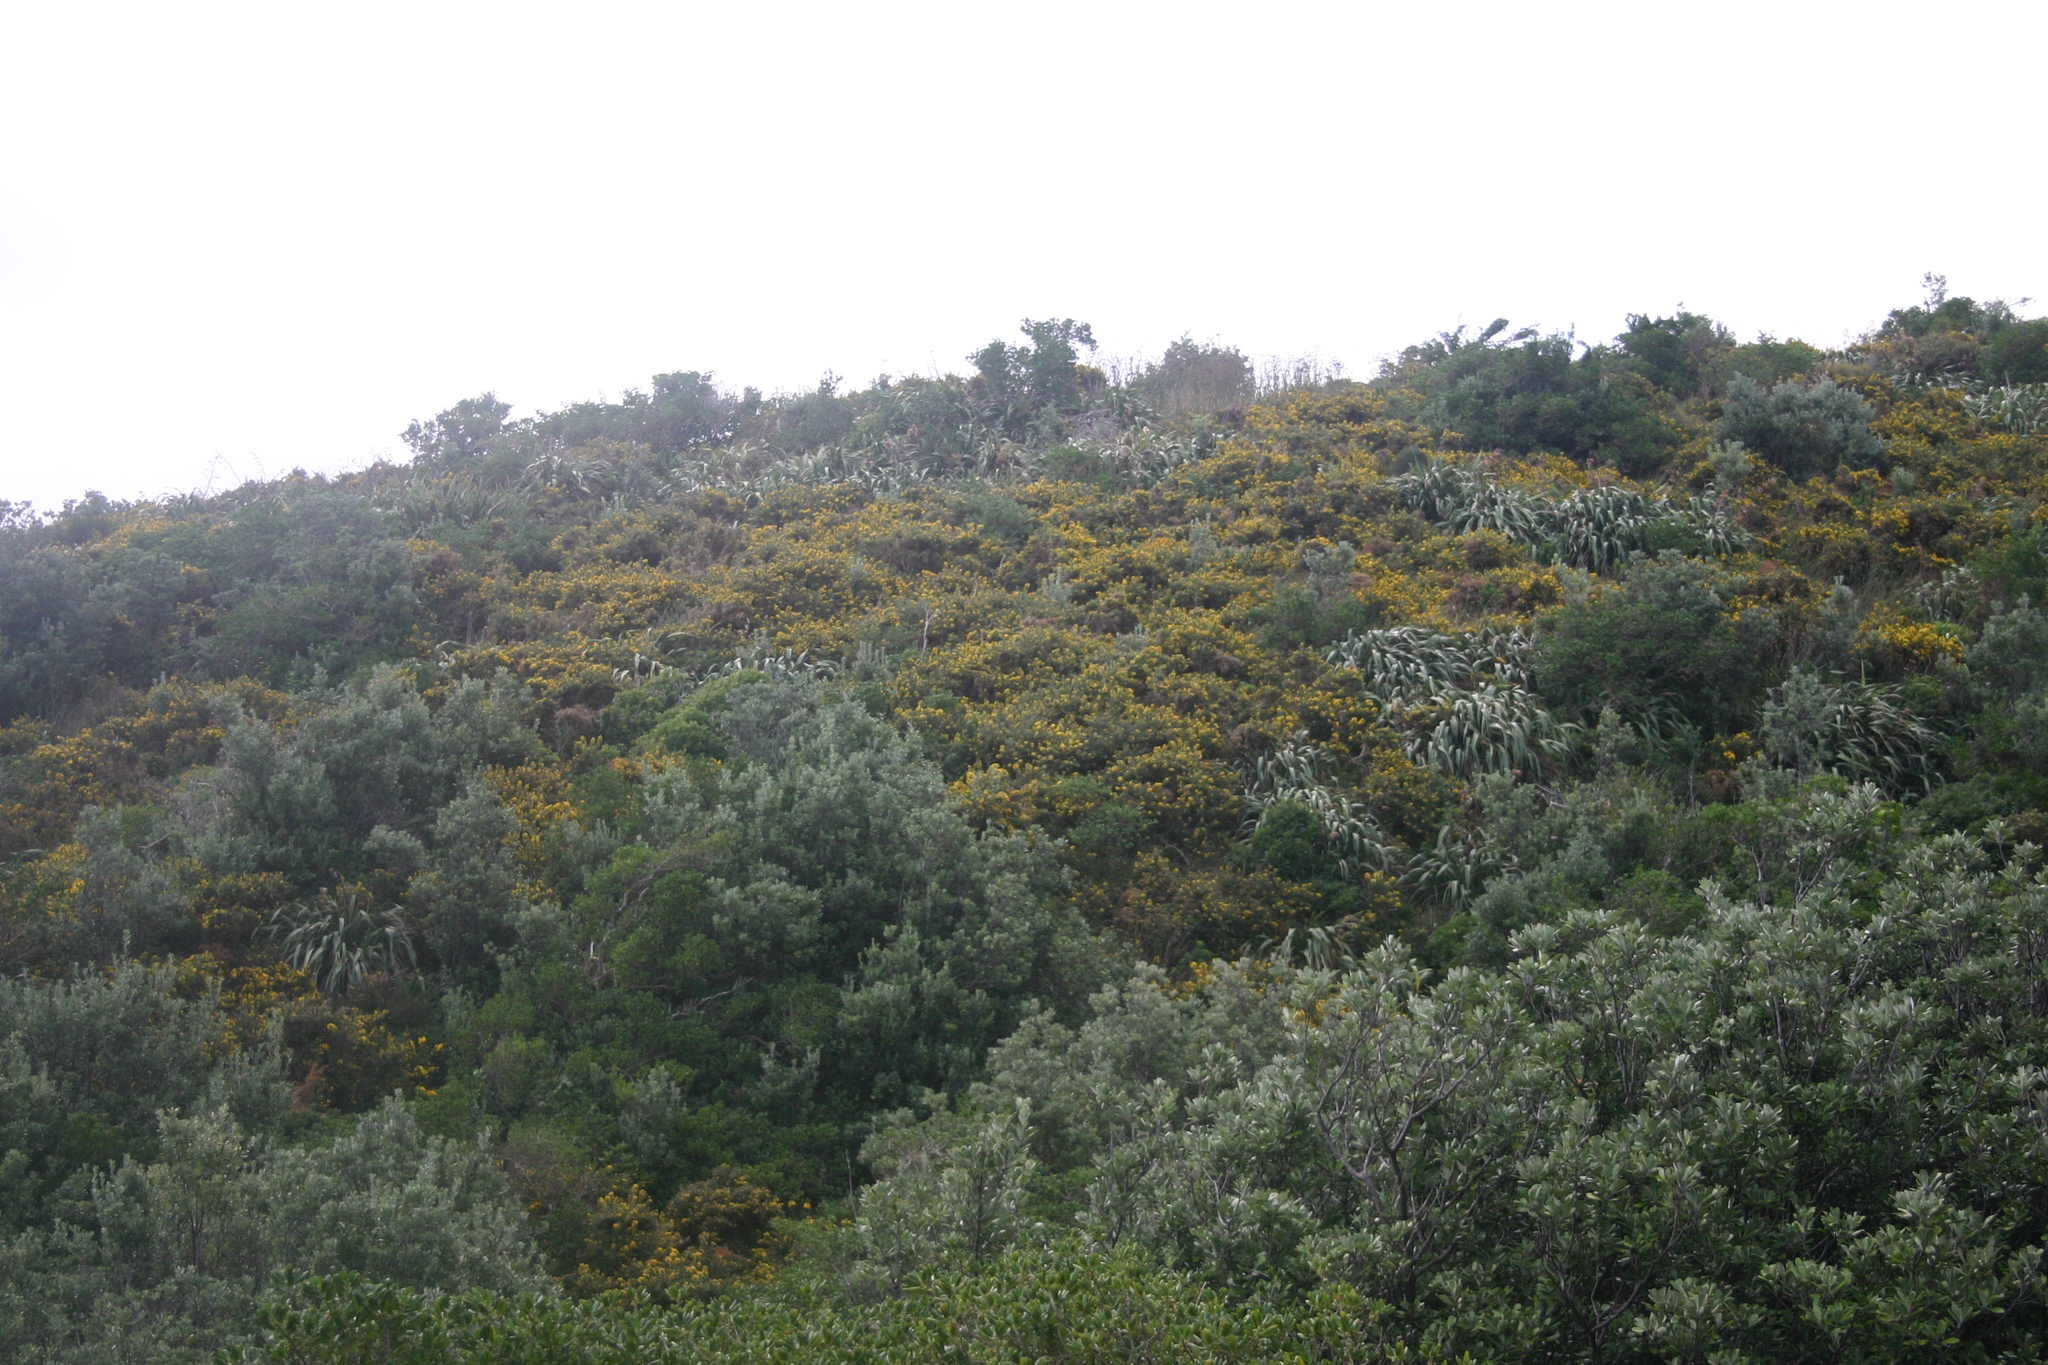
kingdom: Plantae
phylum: Tracheophyta
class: Magnoliopsida
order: Fabales
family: Fabaceae
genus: Ulex
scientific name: Ulex europaeus
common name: Common gorse
